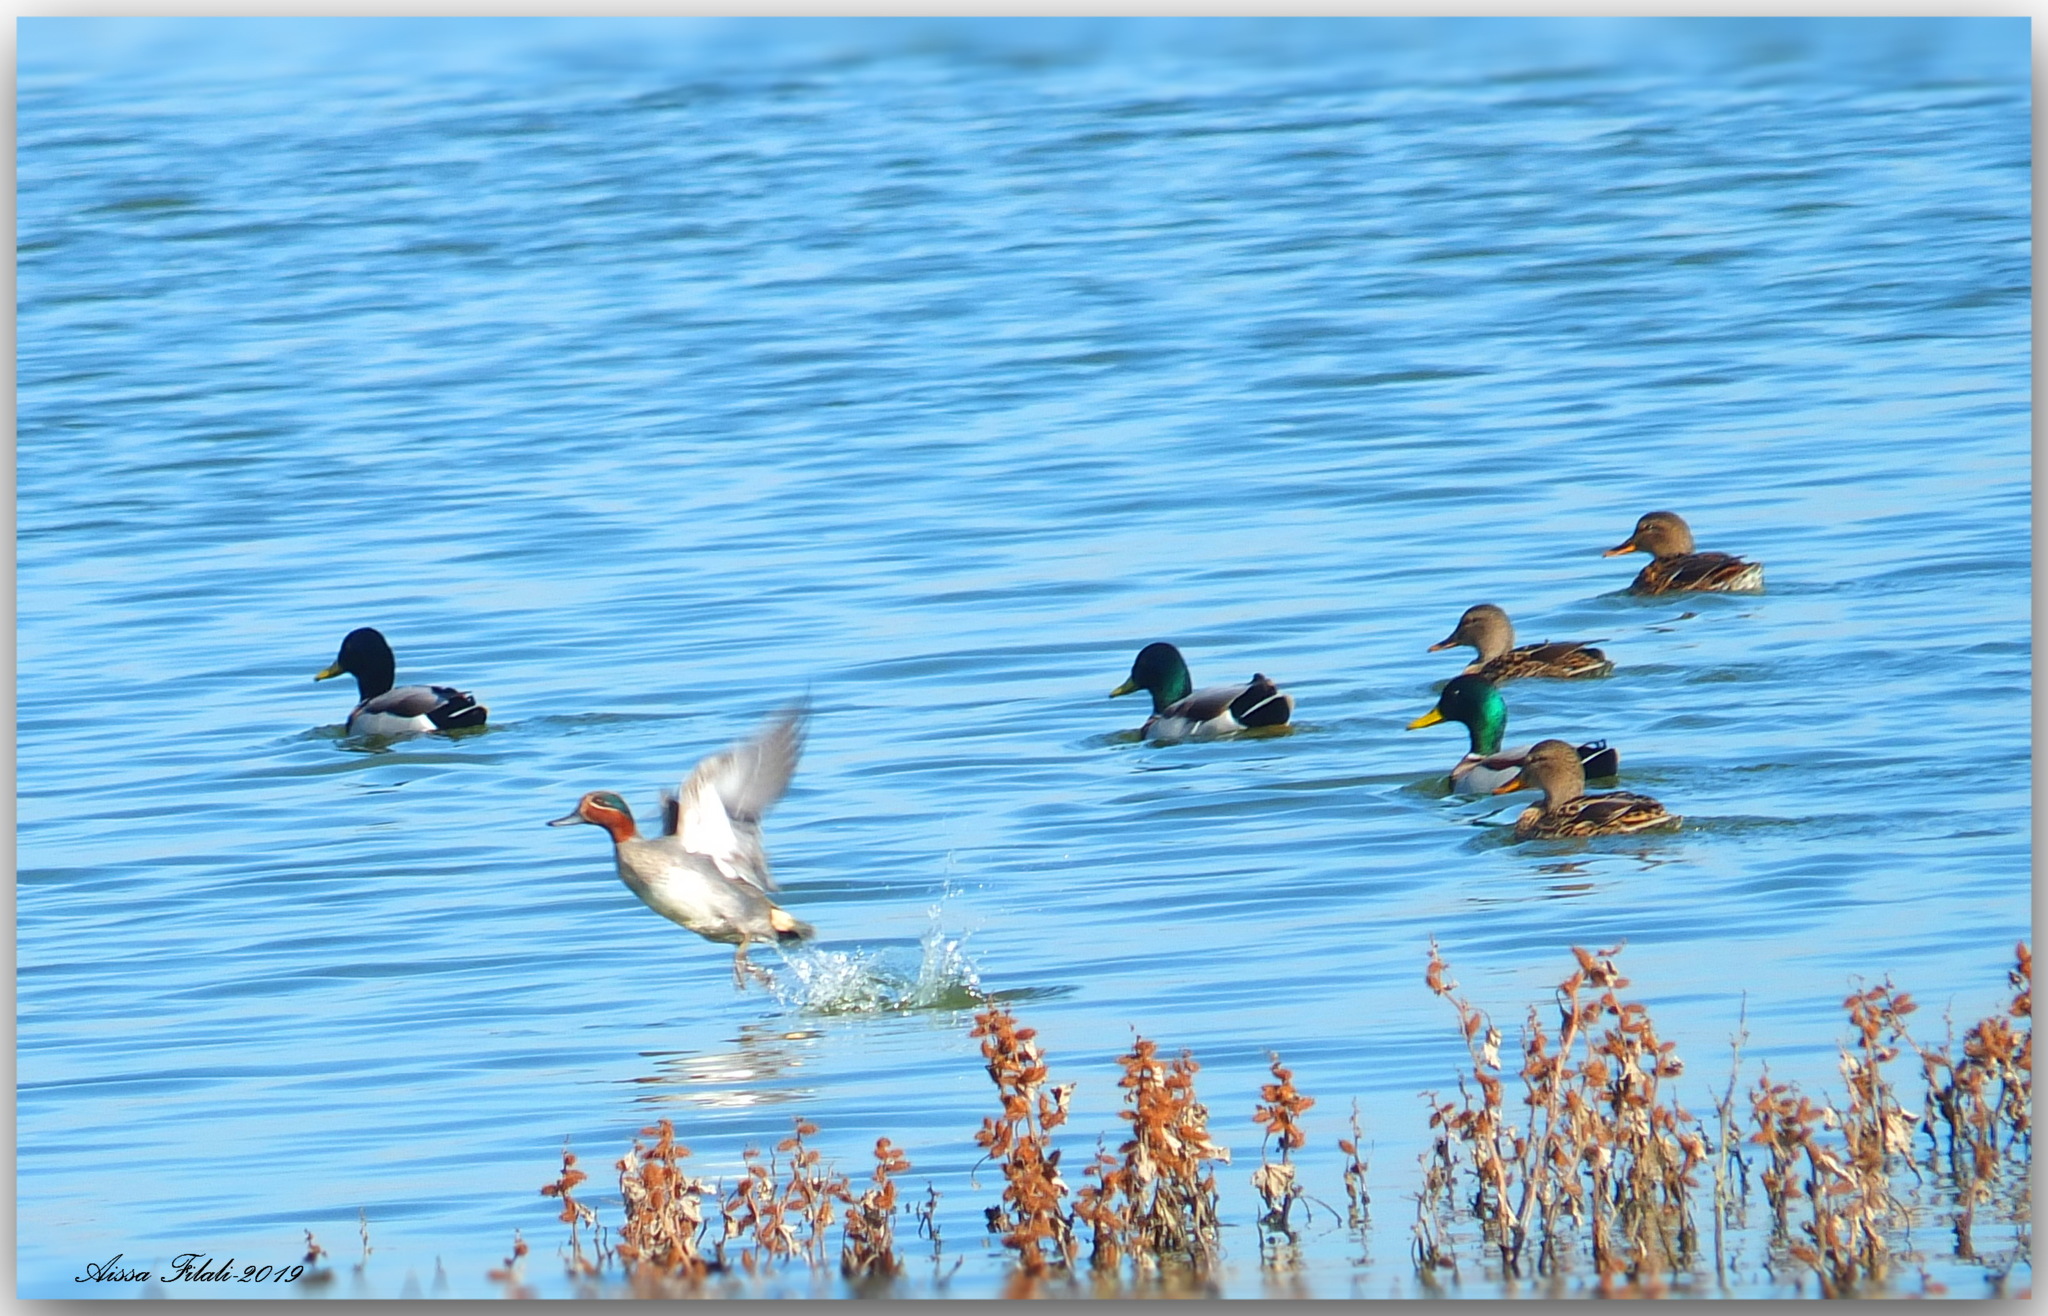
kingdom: Animalia
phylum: Chordata
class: Aves
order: Anseriformes
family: Anatidae
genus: Anas
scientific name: Anas crecca
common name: Eurasian teal
